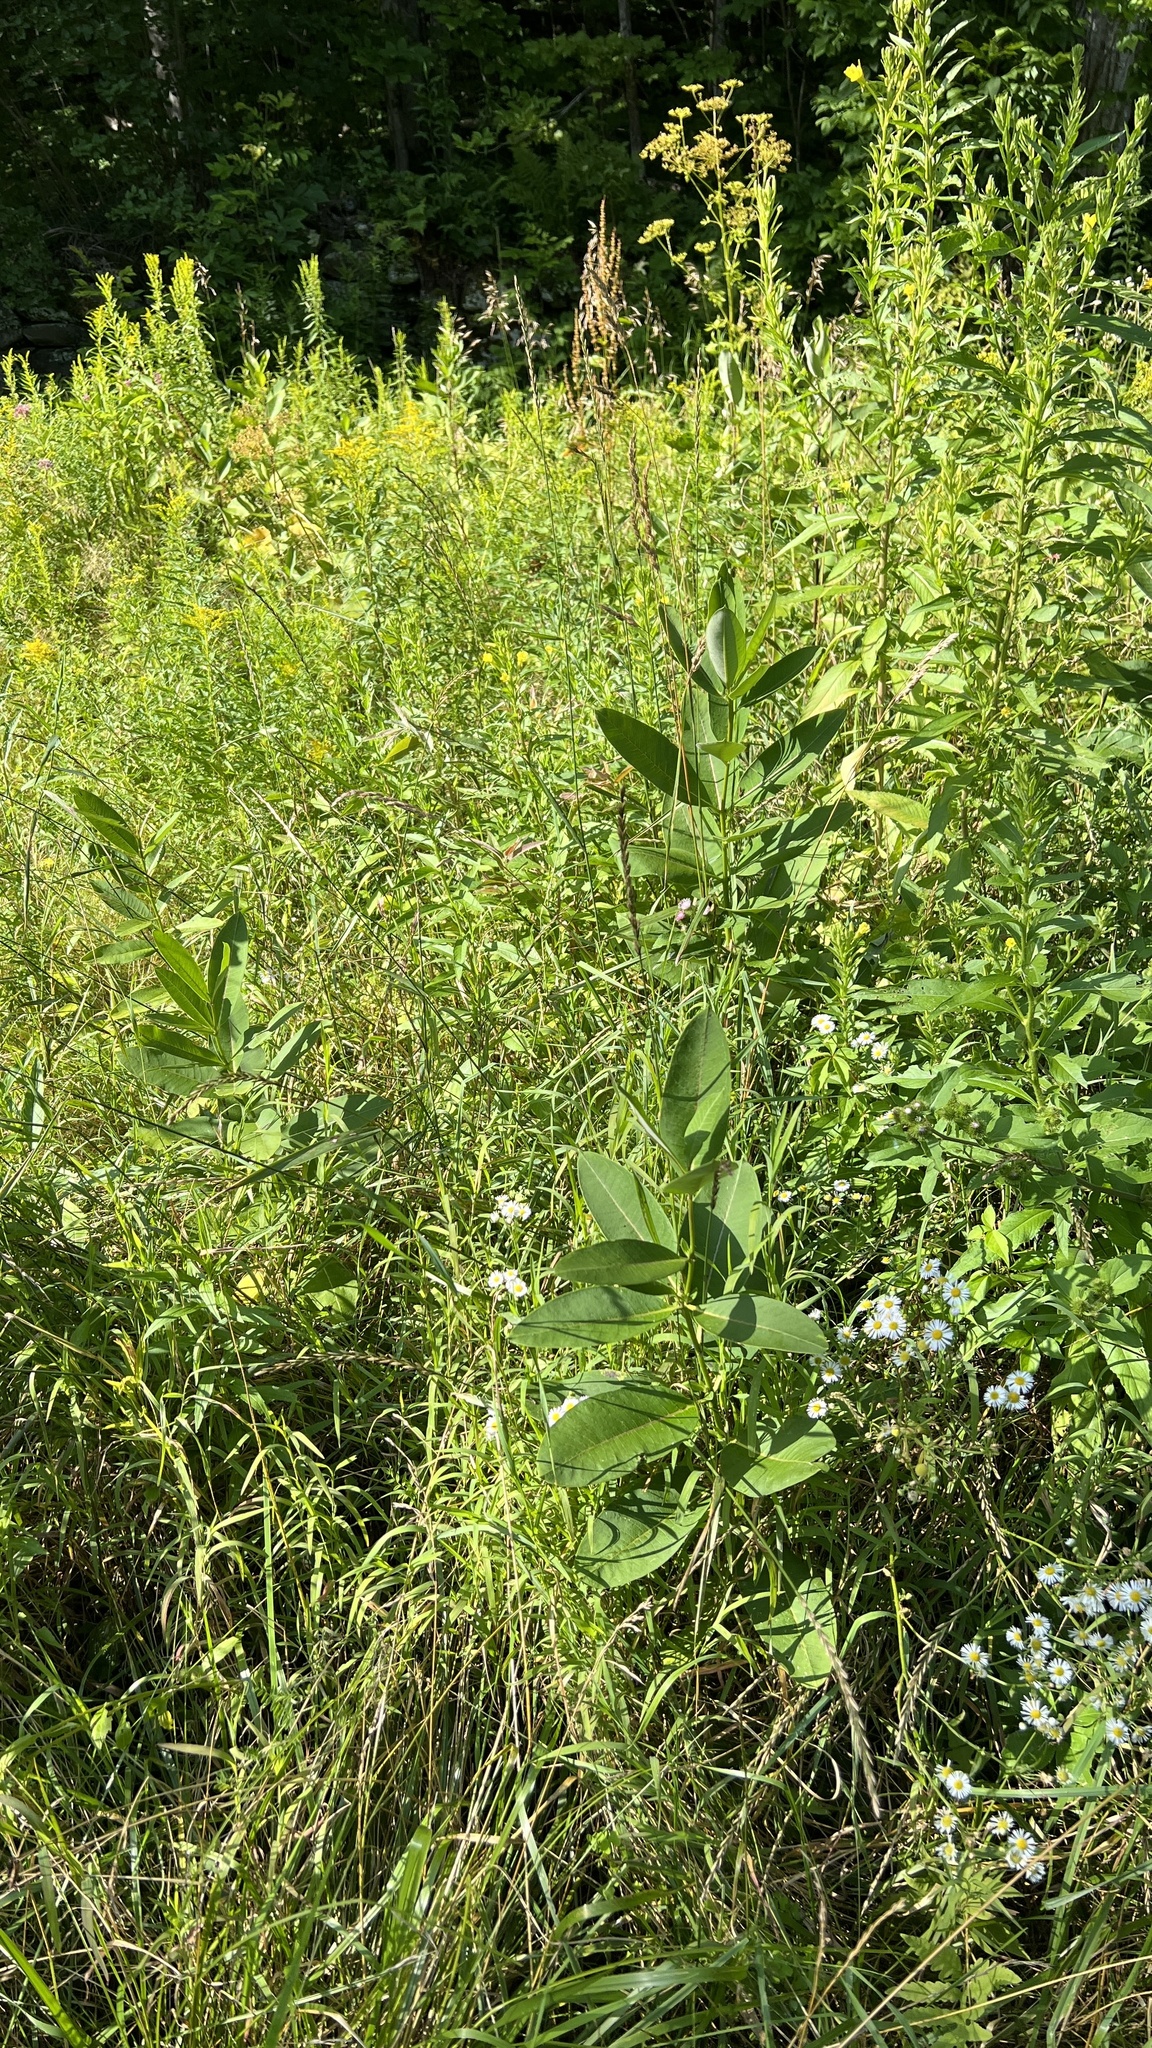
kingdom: Plantae
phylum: Tracheophyta
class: Magnoliopsida
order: Gentianales
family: Apocynaceae
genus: Asclepias
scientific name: Asclepias syriaca
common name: Common milkweed
